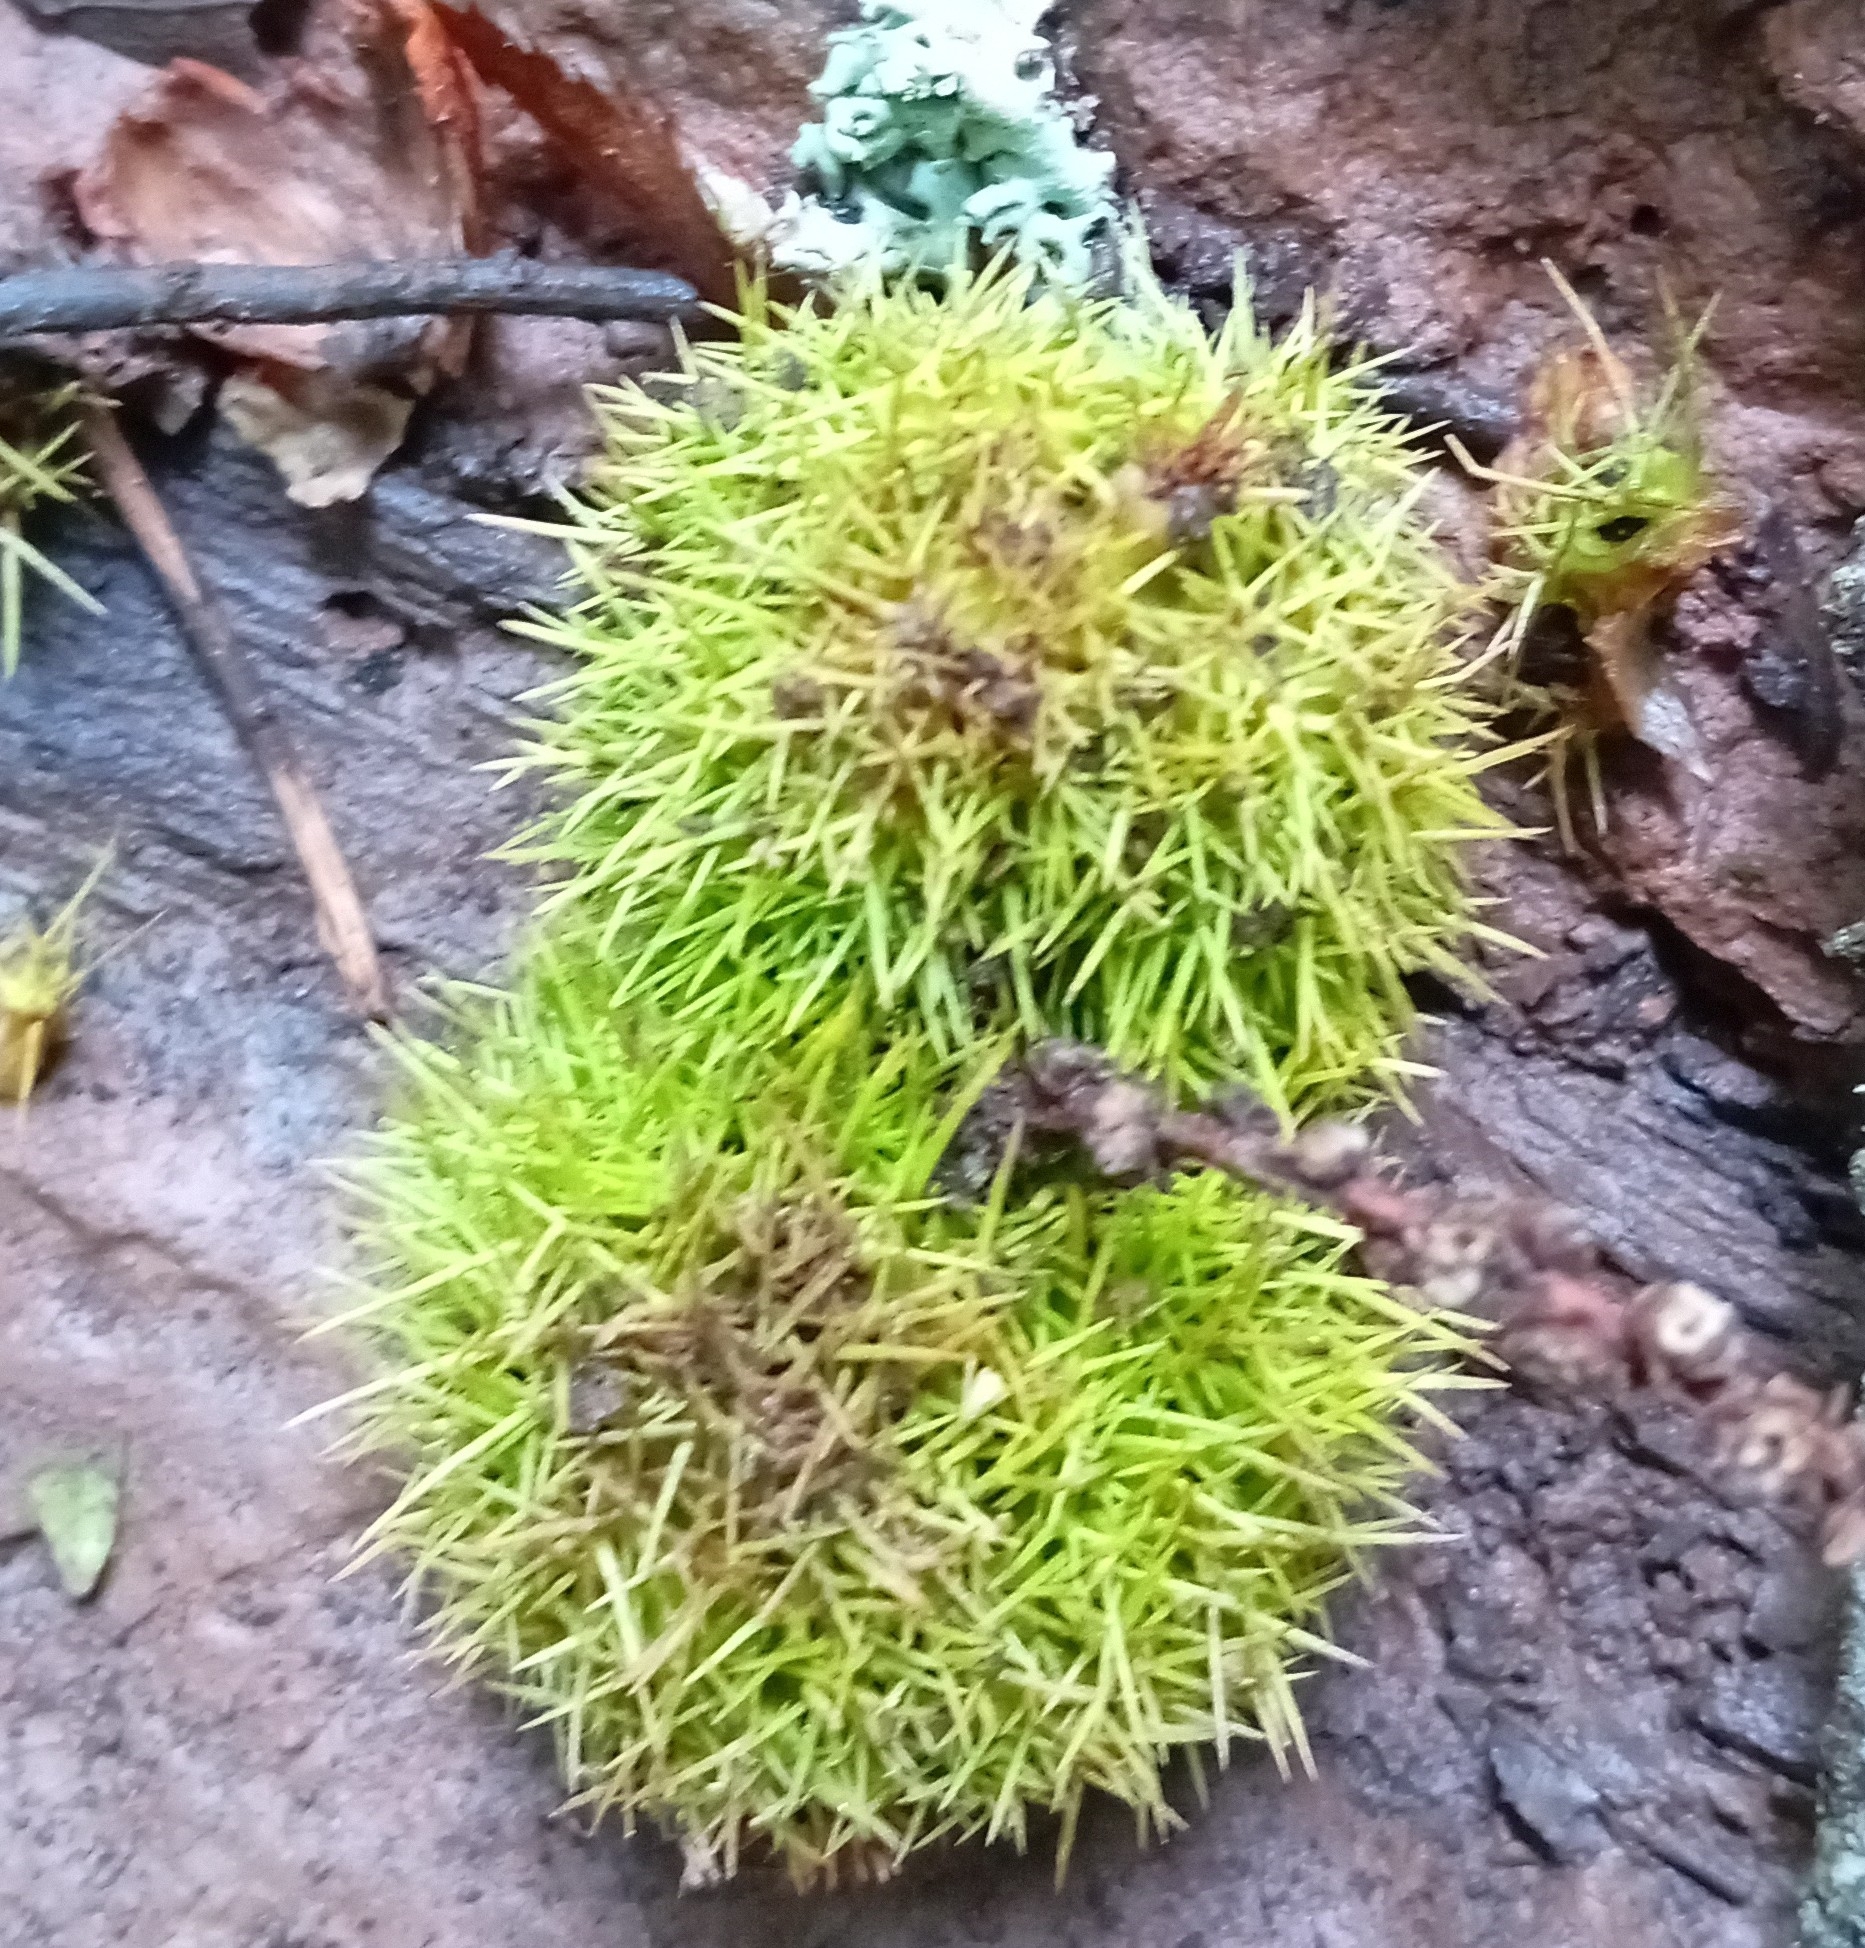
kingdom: Plantae
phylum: Tracheophyta
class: Magnoliopsida
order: Fagales
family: Fagaceae
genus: Castanea
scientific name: Castanea sativa
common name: Sweet chestnut
